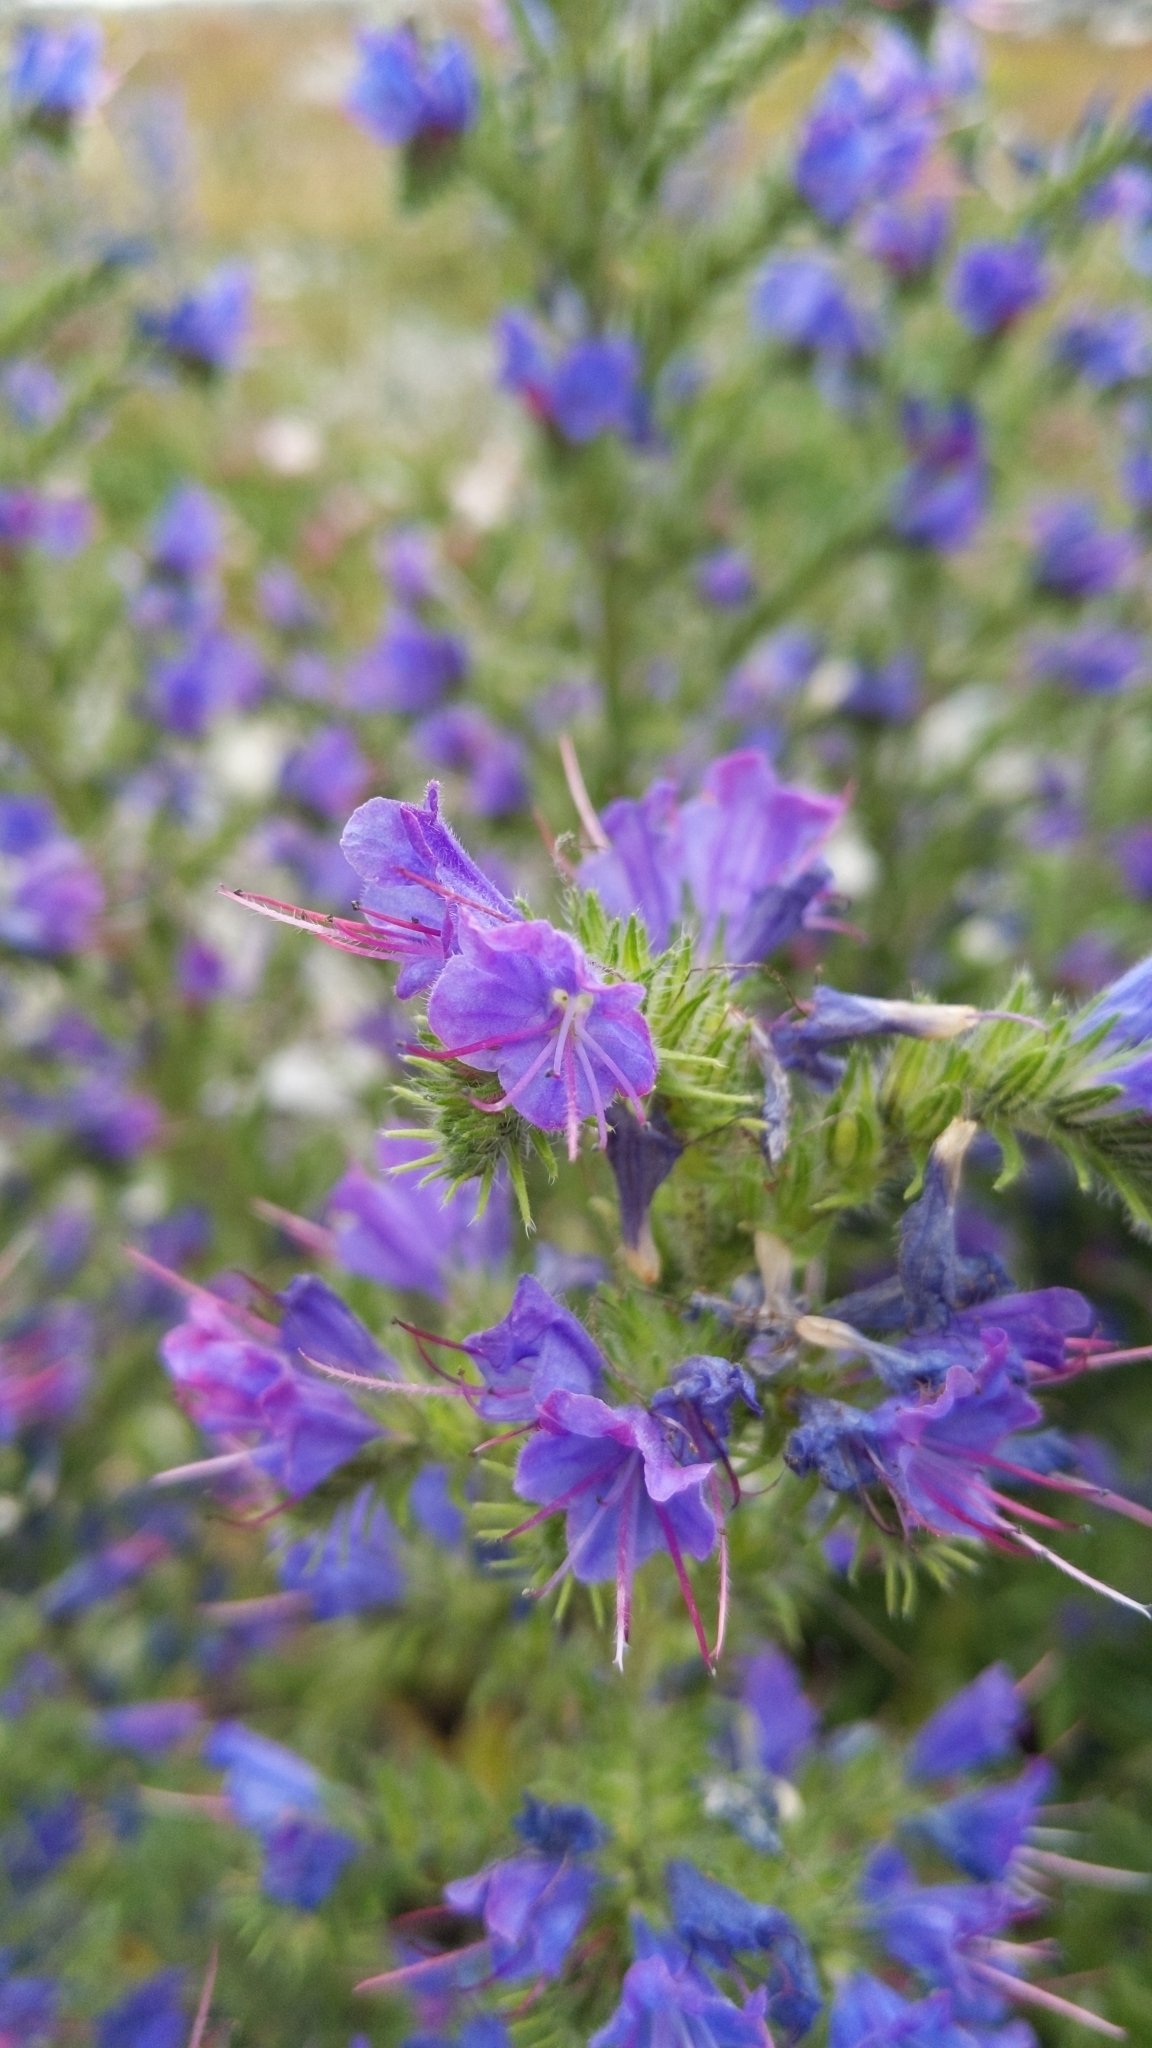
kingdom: Plantae
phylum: Tracheophyta
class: Magnoliopsida
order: Boraginales
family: Boraginaceae
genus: Echium
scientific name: Echium vulgare
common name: Common viper's bugloss
